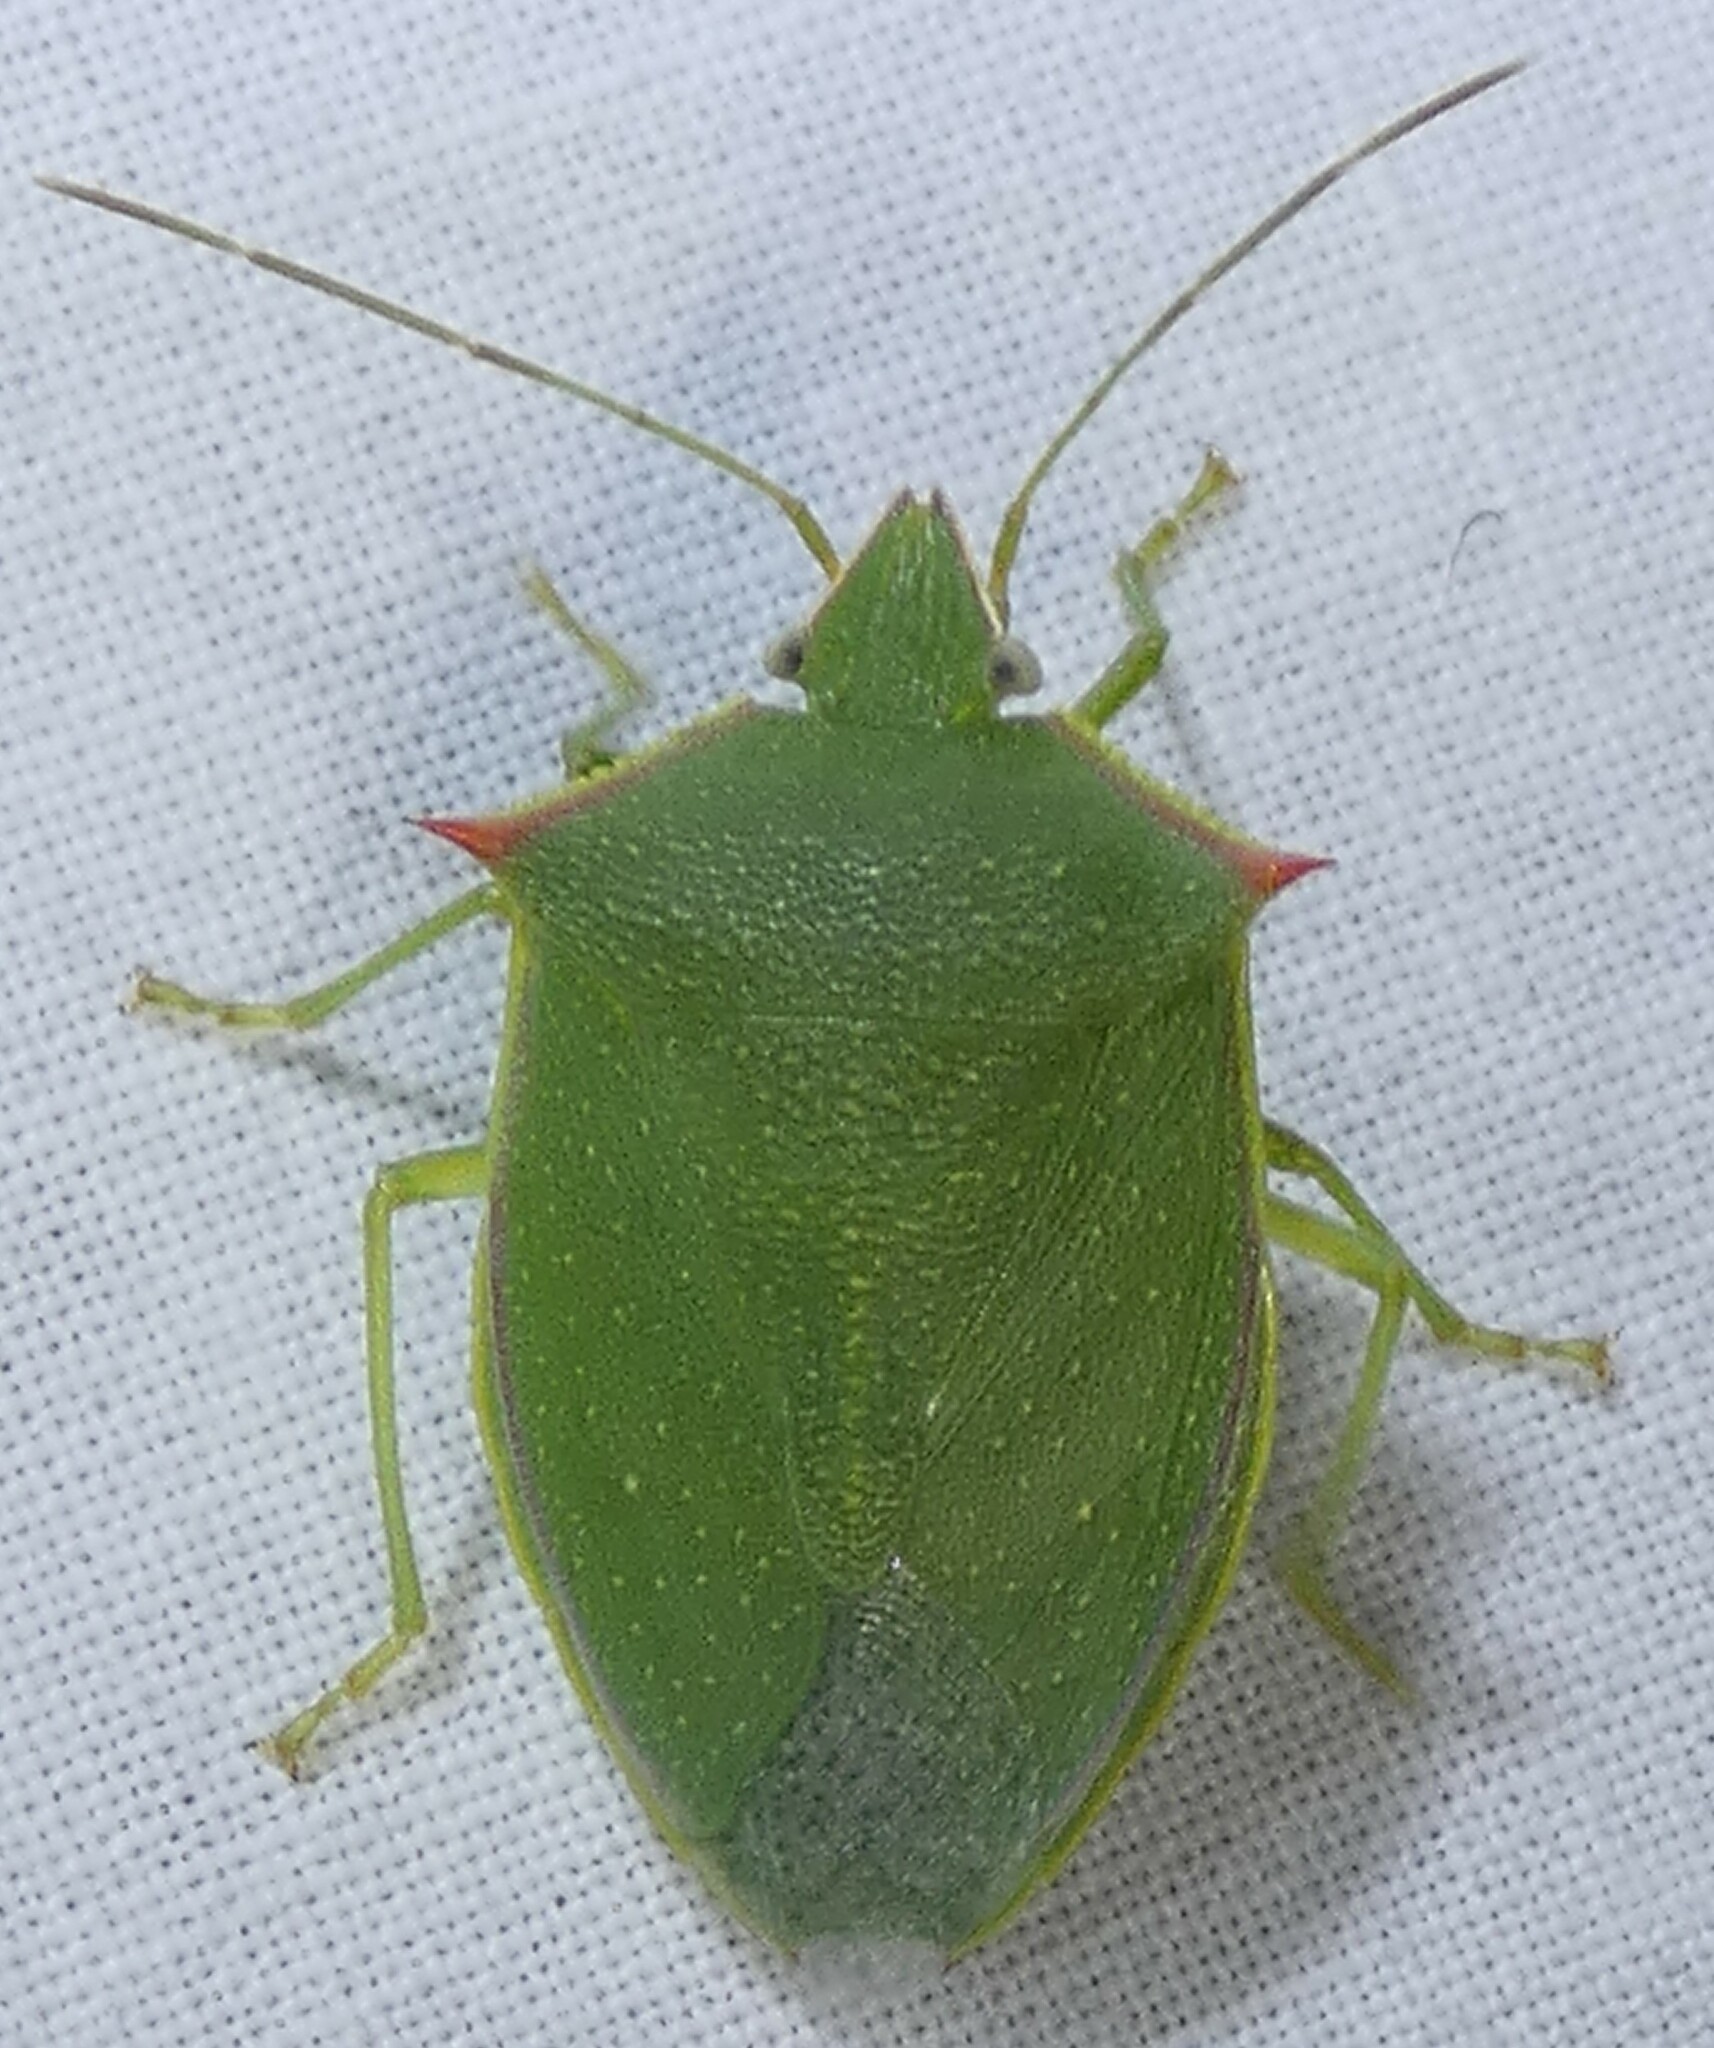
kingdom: Animalia
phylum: Arthropoda
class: Insecta
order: Hemiptera
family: Pentatomidae
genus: Loxa
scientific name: Loxa flavicollis
